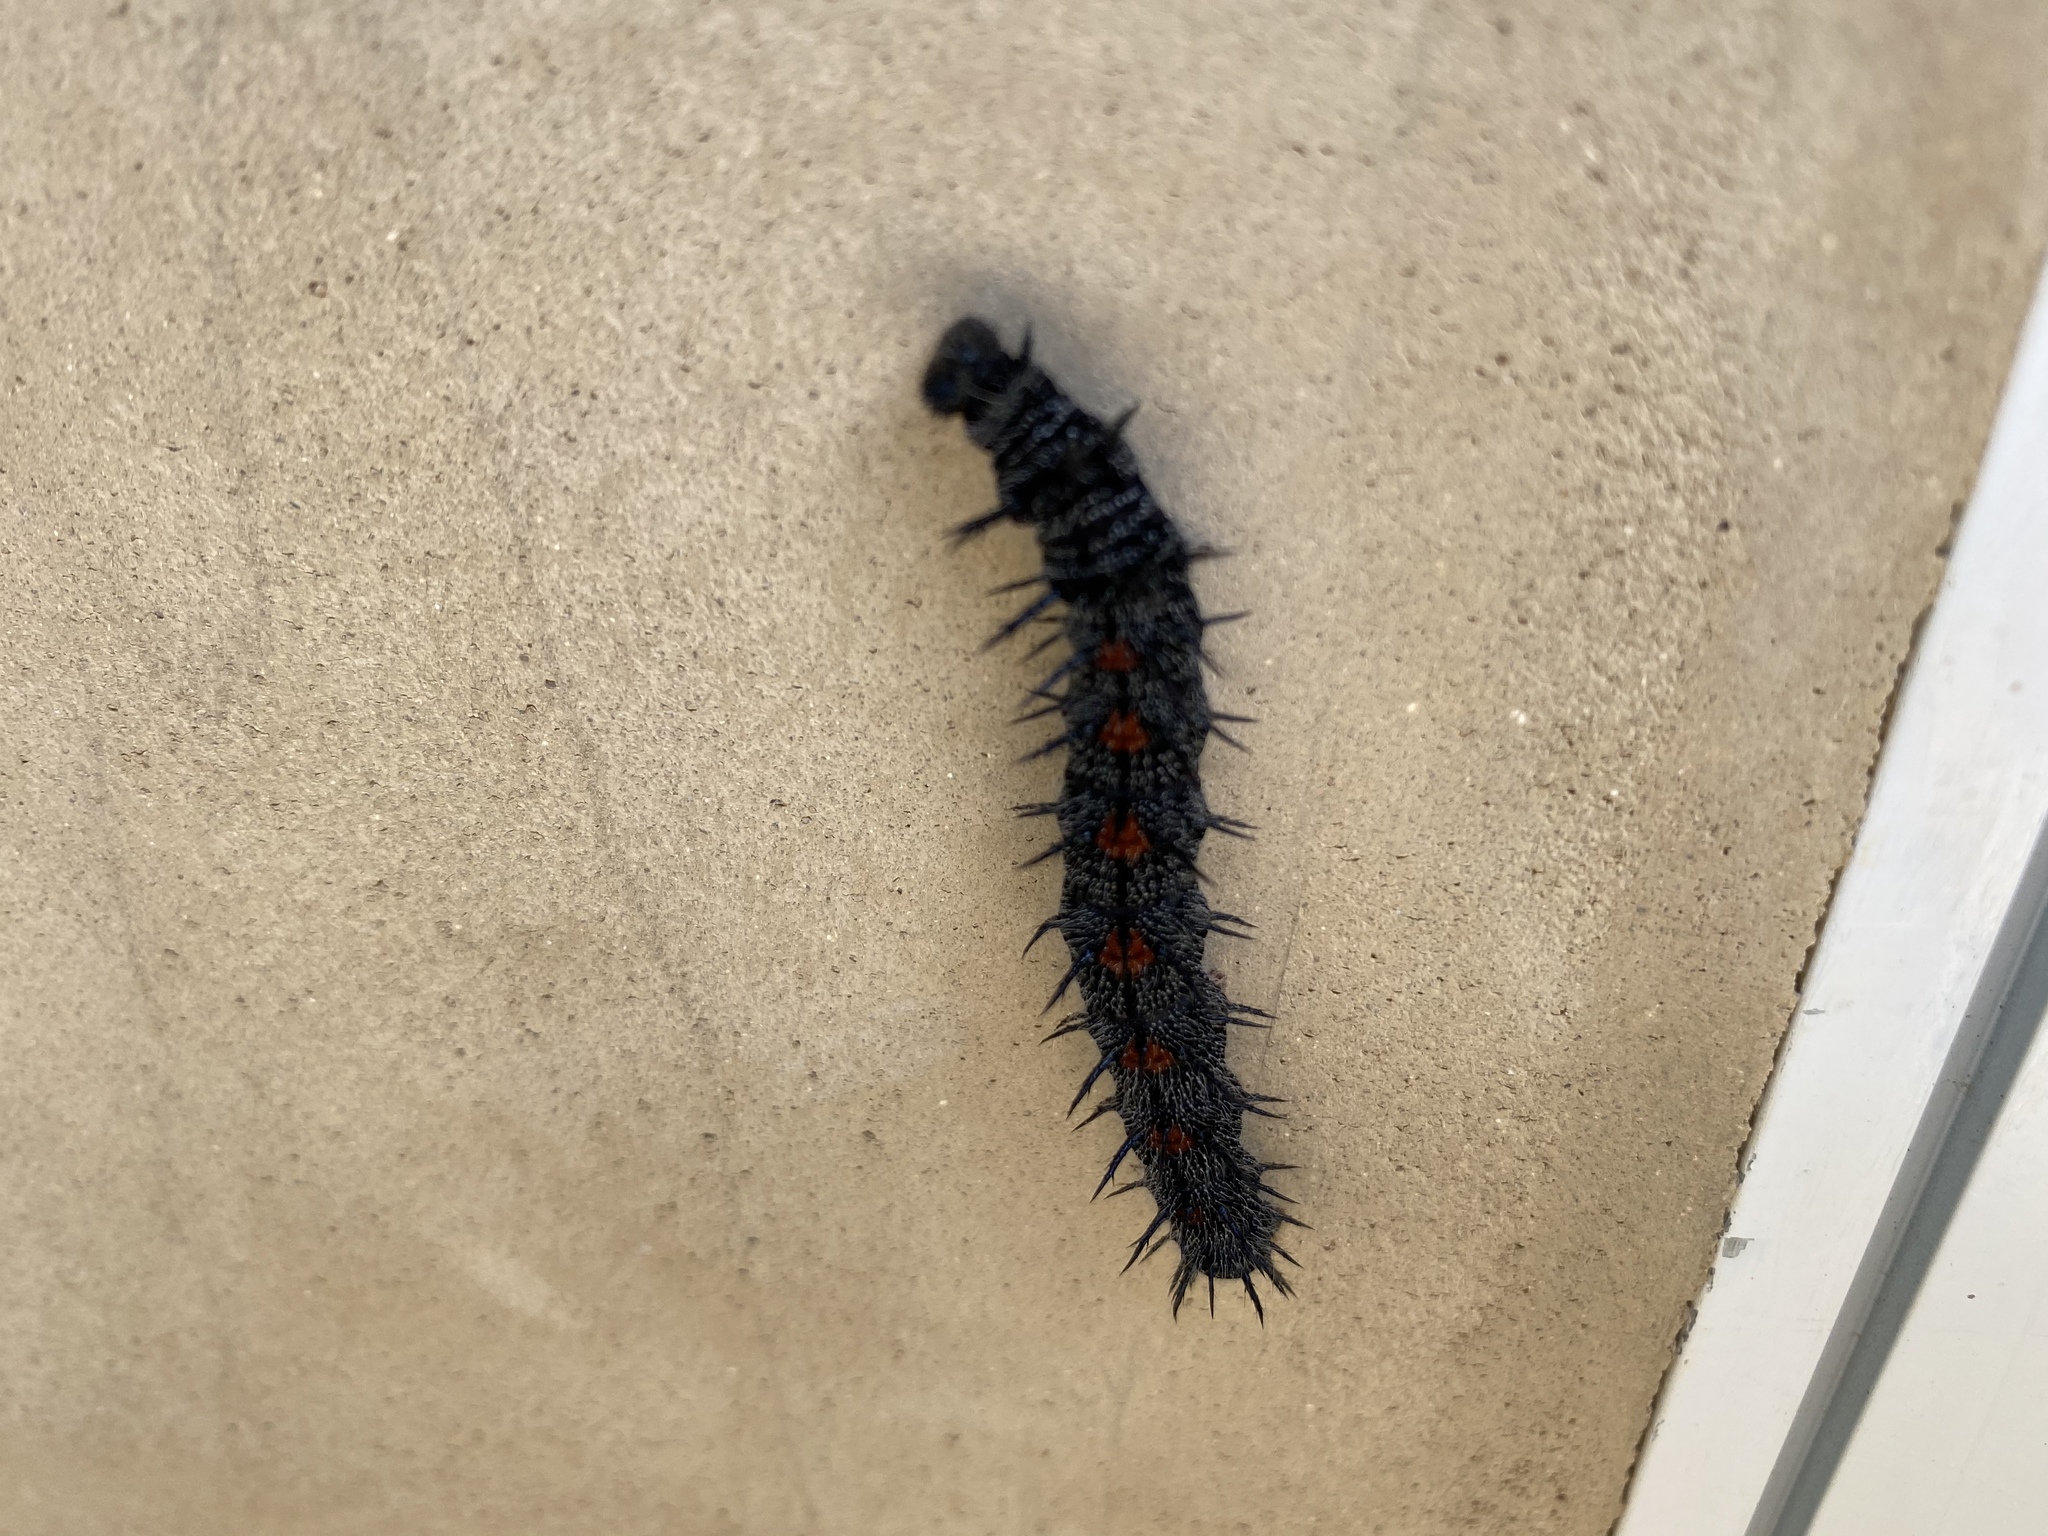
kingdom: Animalia
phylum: Arthropoda
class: Insecta
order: Lepidoptera
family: Nymphalidae
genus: Nymphalis
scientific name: Nymphalis antiopa
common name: Camberwell beauty
